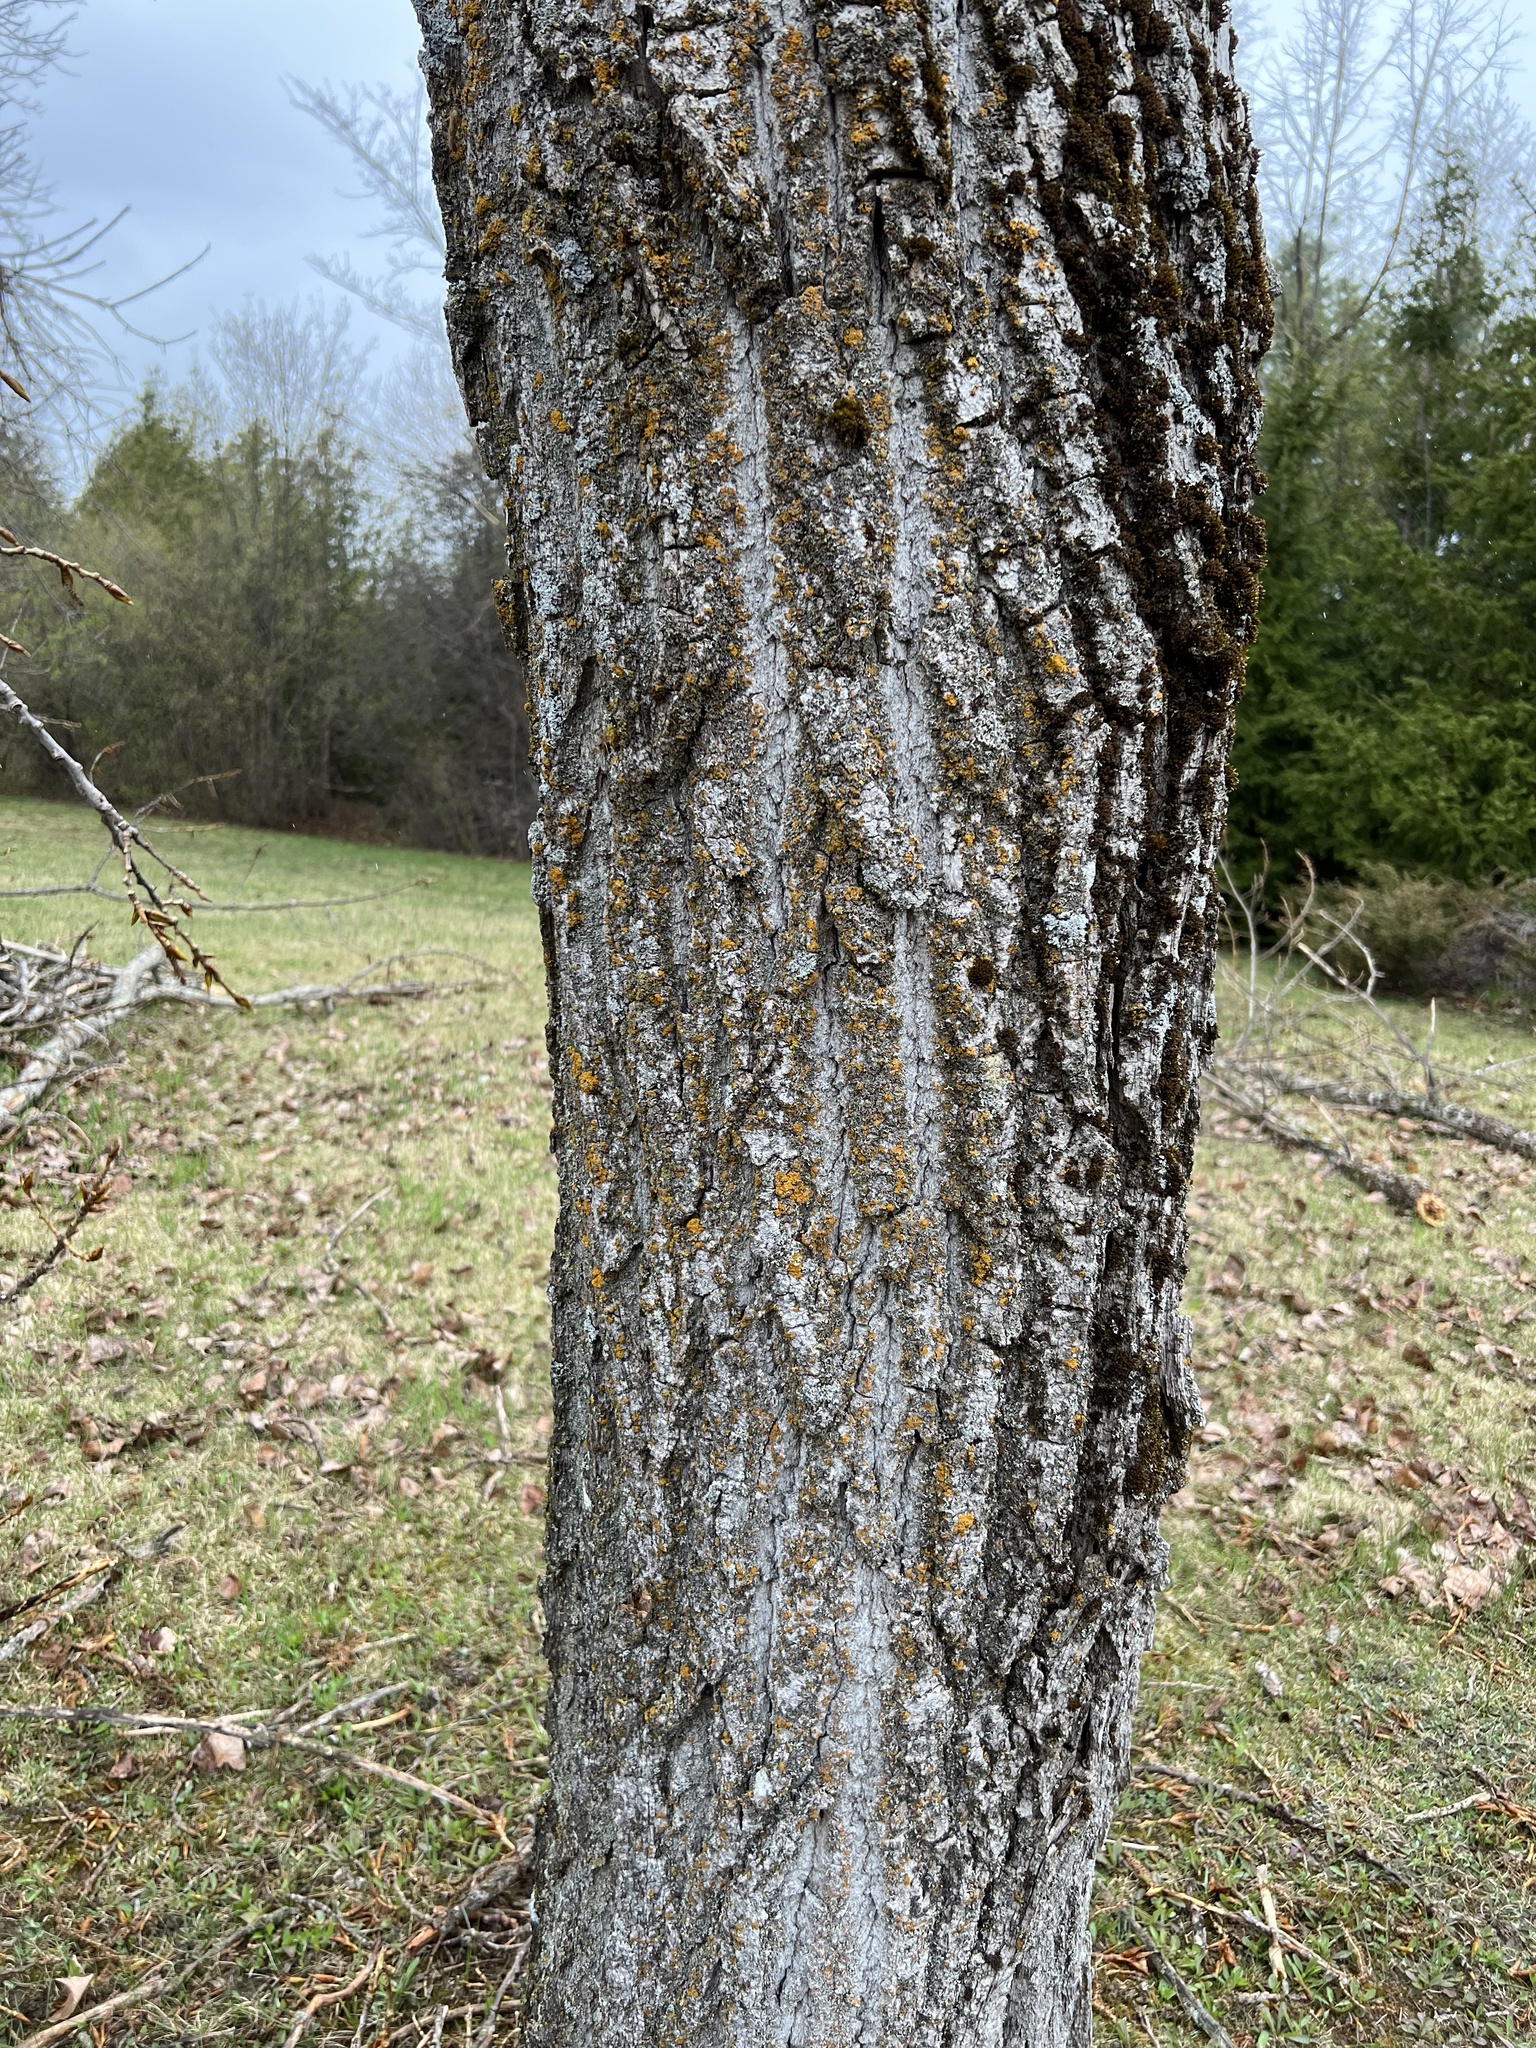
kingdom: Plantae
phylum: Tracheophyta
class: Magnoliopsida
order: Malpighiales
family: Salicaceae
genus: Populus
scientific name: Populus deltoides
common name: Eastern cottonwood
